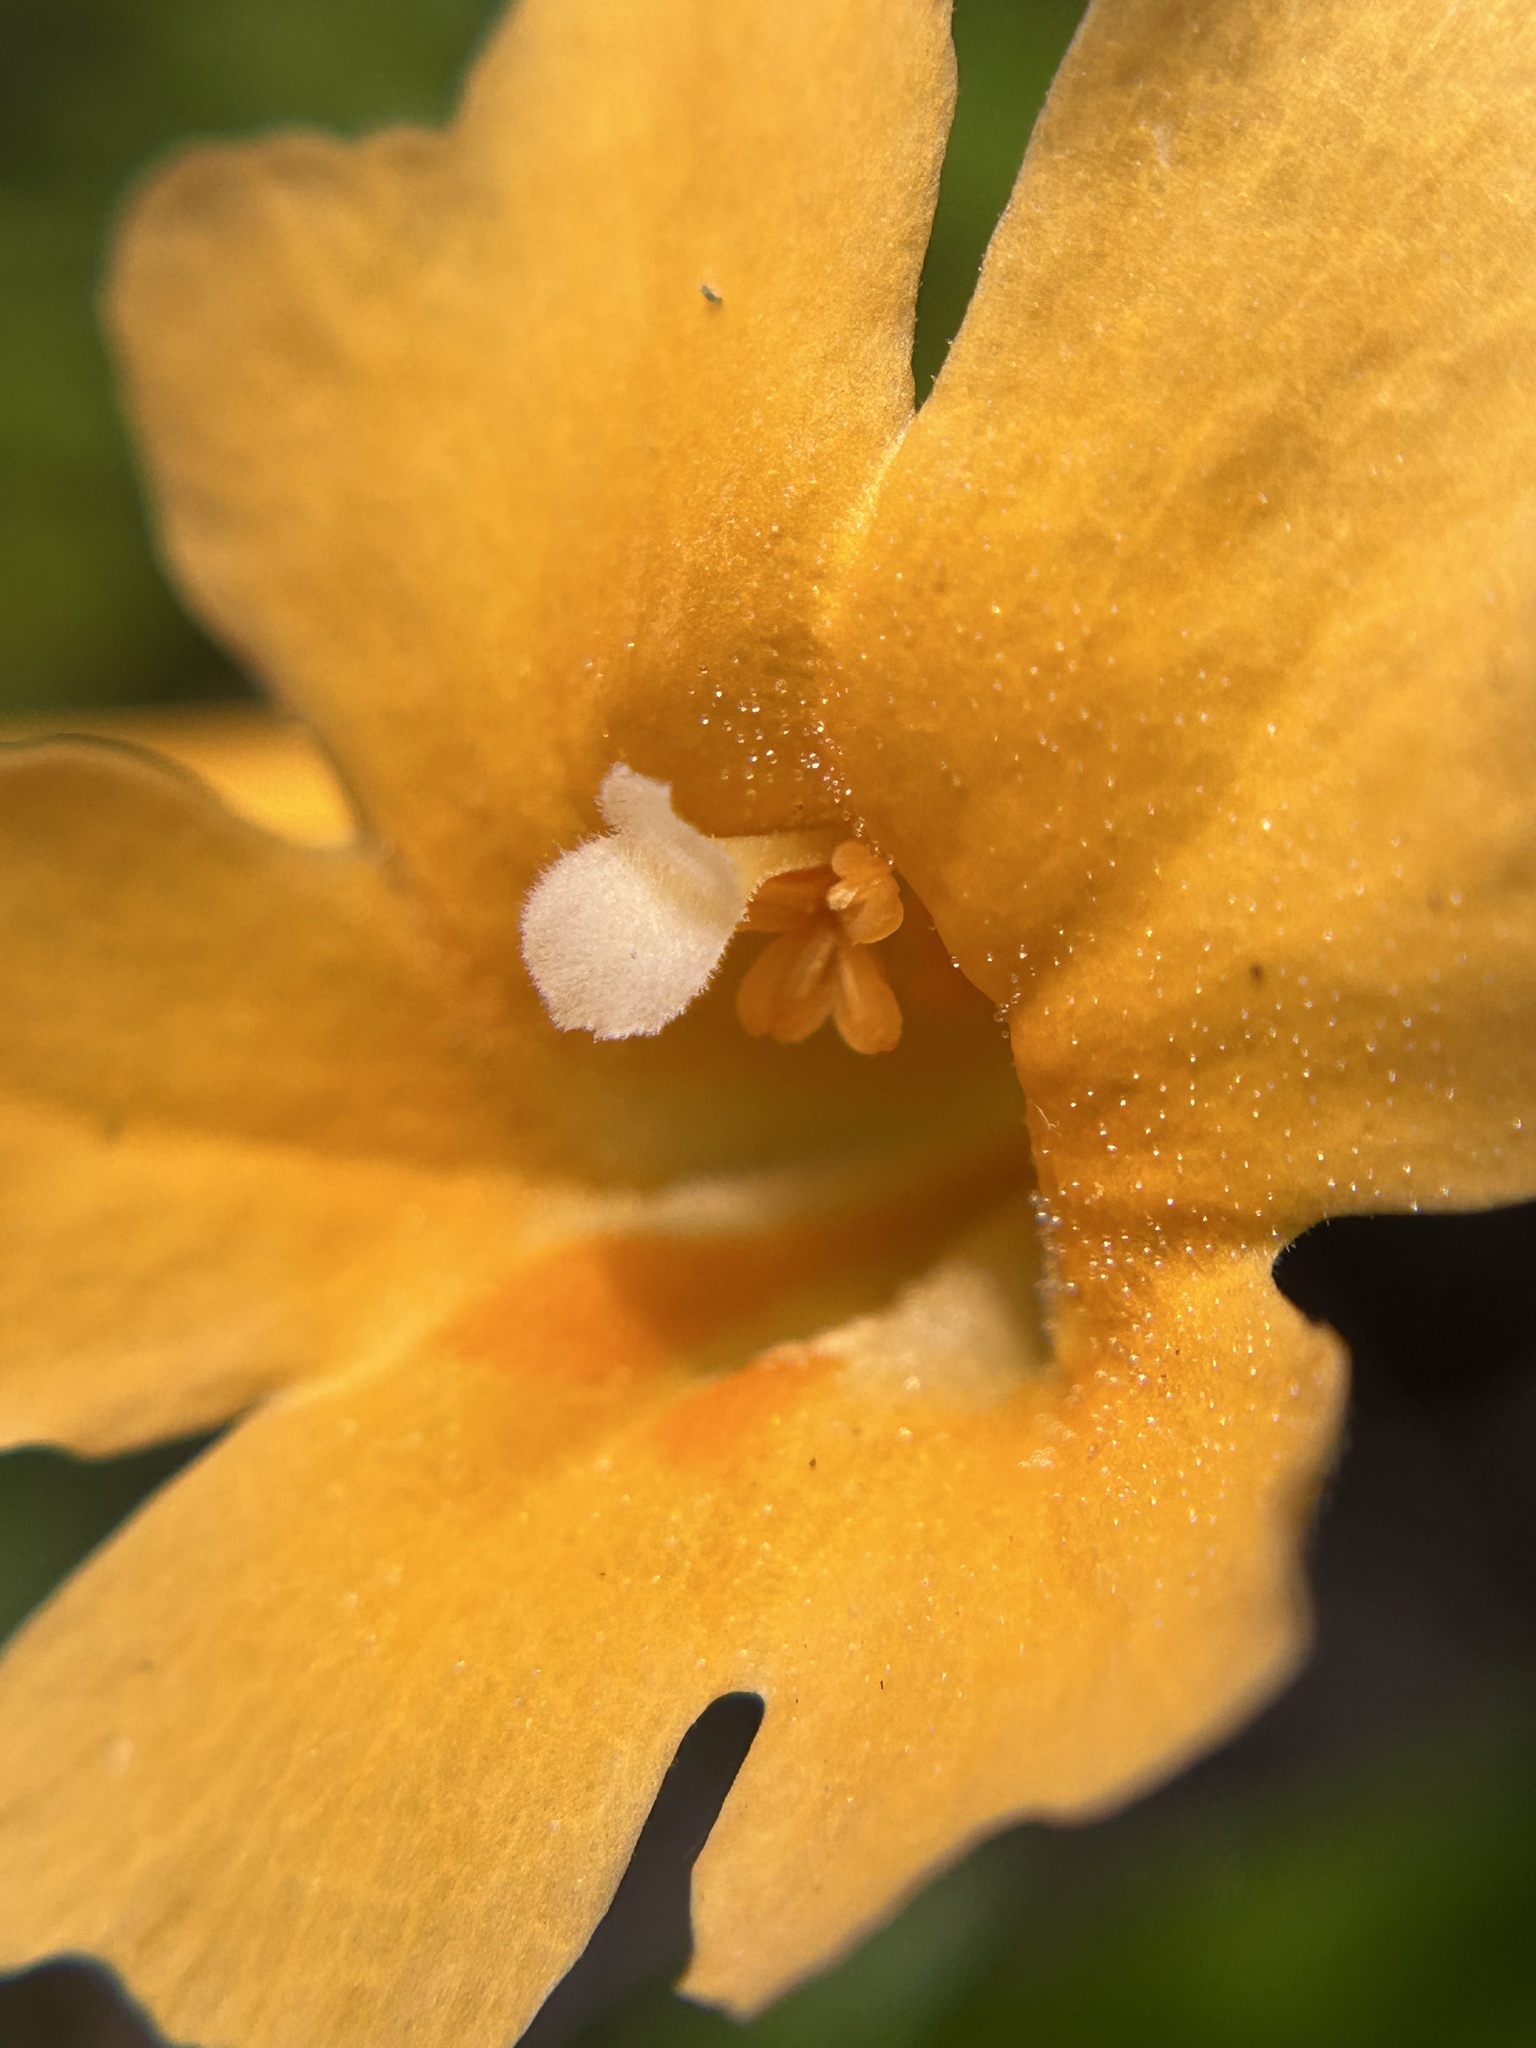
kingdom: Plantae
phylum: Tracheophyta
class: Magnoliopsida
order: Lamiales
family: Phrymaceae
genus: Diplacus
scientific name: Diplacus aurantiacus
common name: Bush monkey-flower
